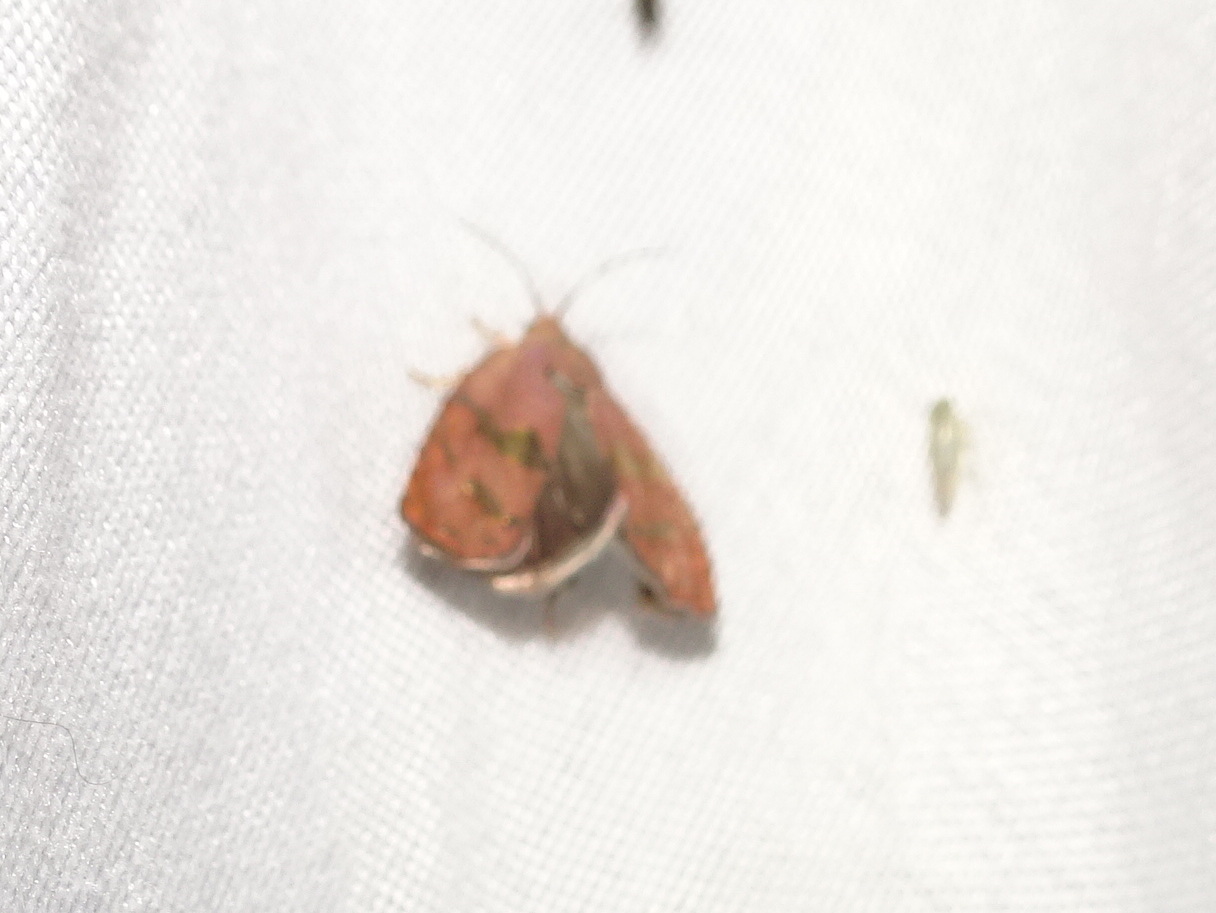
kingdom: Animalia
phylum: Arthropoda
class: Insecta
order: Lepidoptera
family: Tortricidae
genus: Cydia
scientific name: Cydia latiferreana
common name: Filbertworm moth
